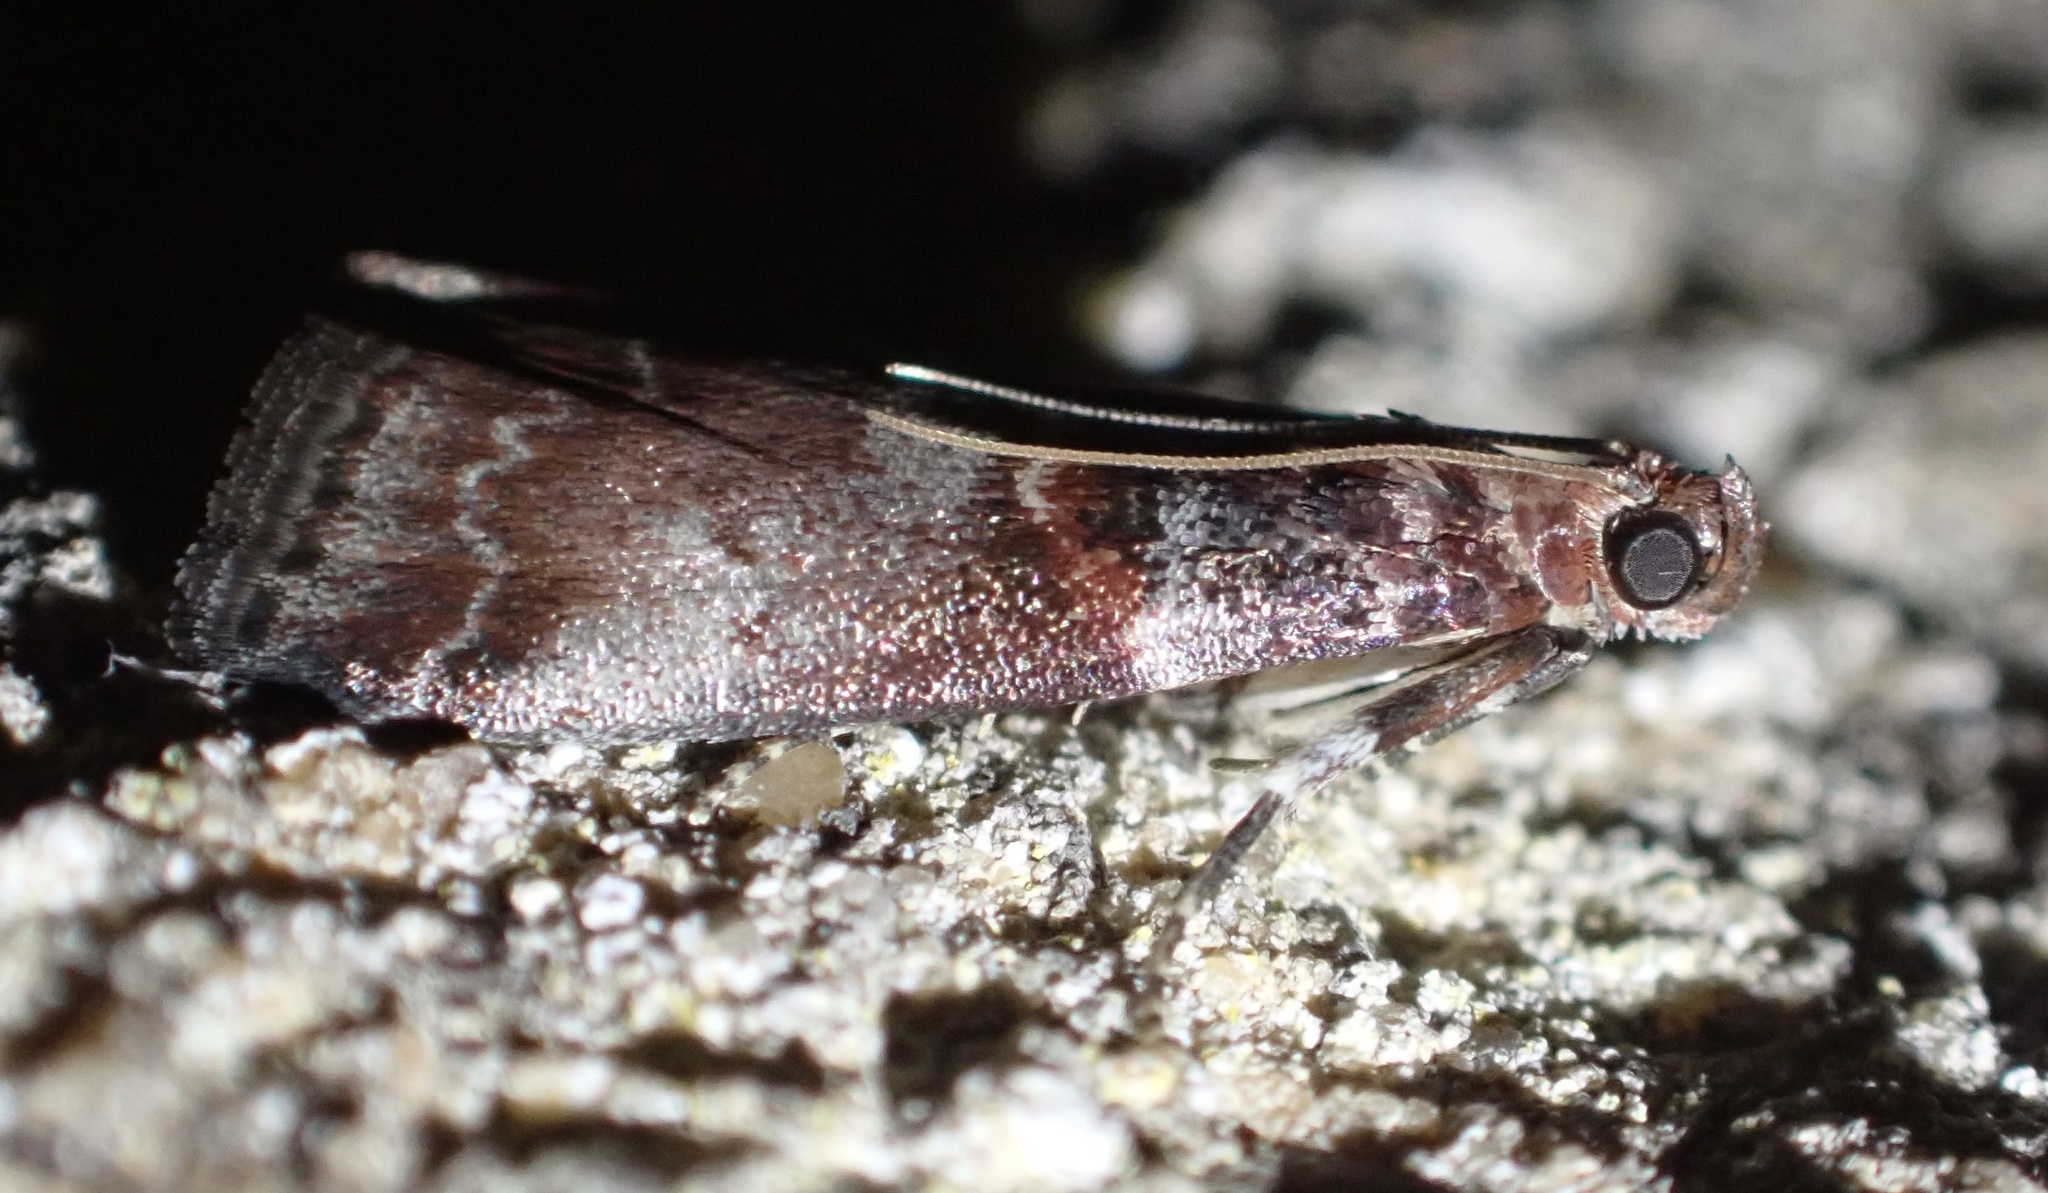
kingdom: Animalia
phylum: Arthropoda
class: Insecta
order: Lepidoptera
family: Pyralidae
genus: Acrobasis
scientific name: Acrobasis advenella
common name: Grey knot-horn
